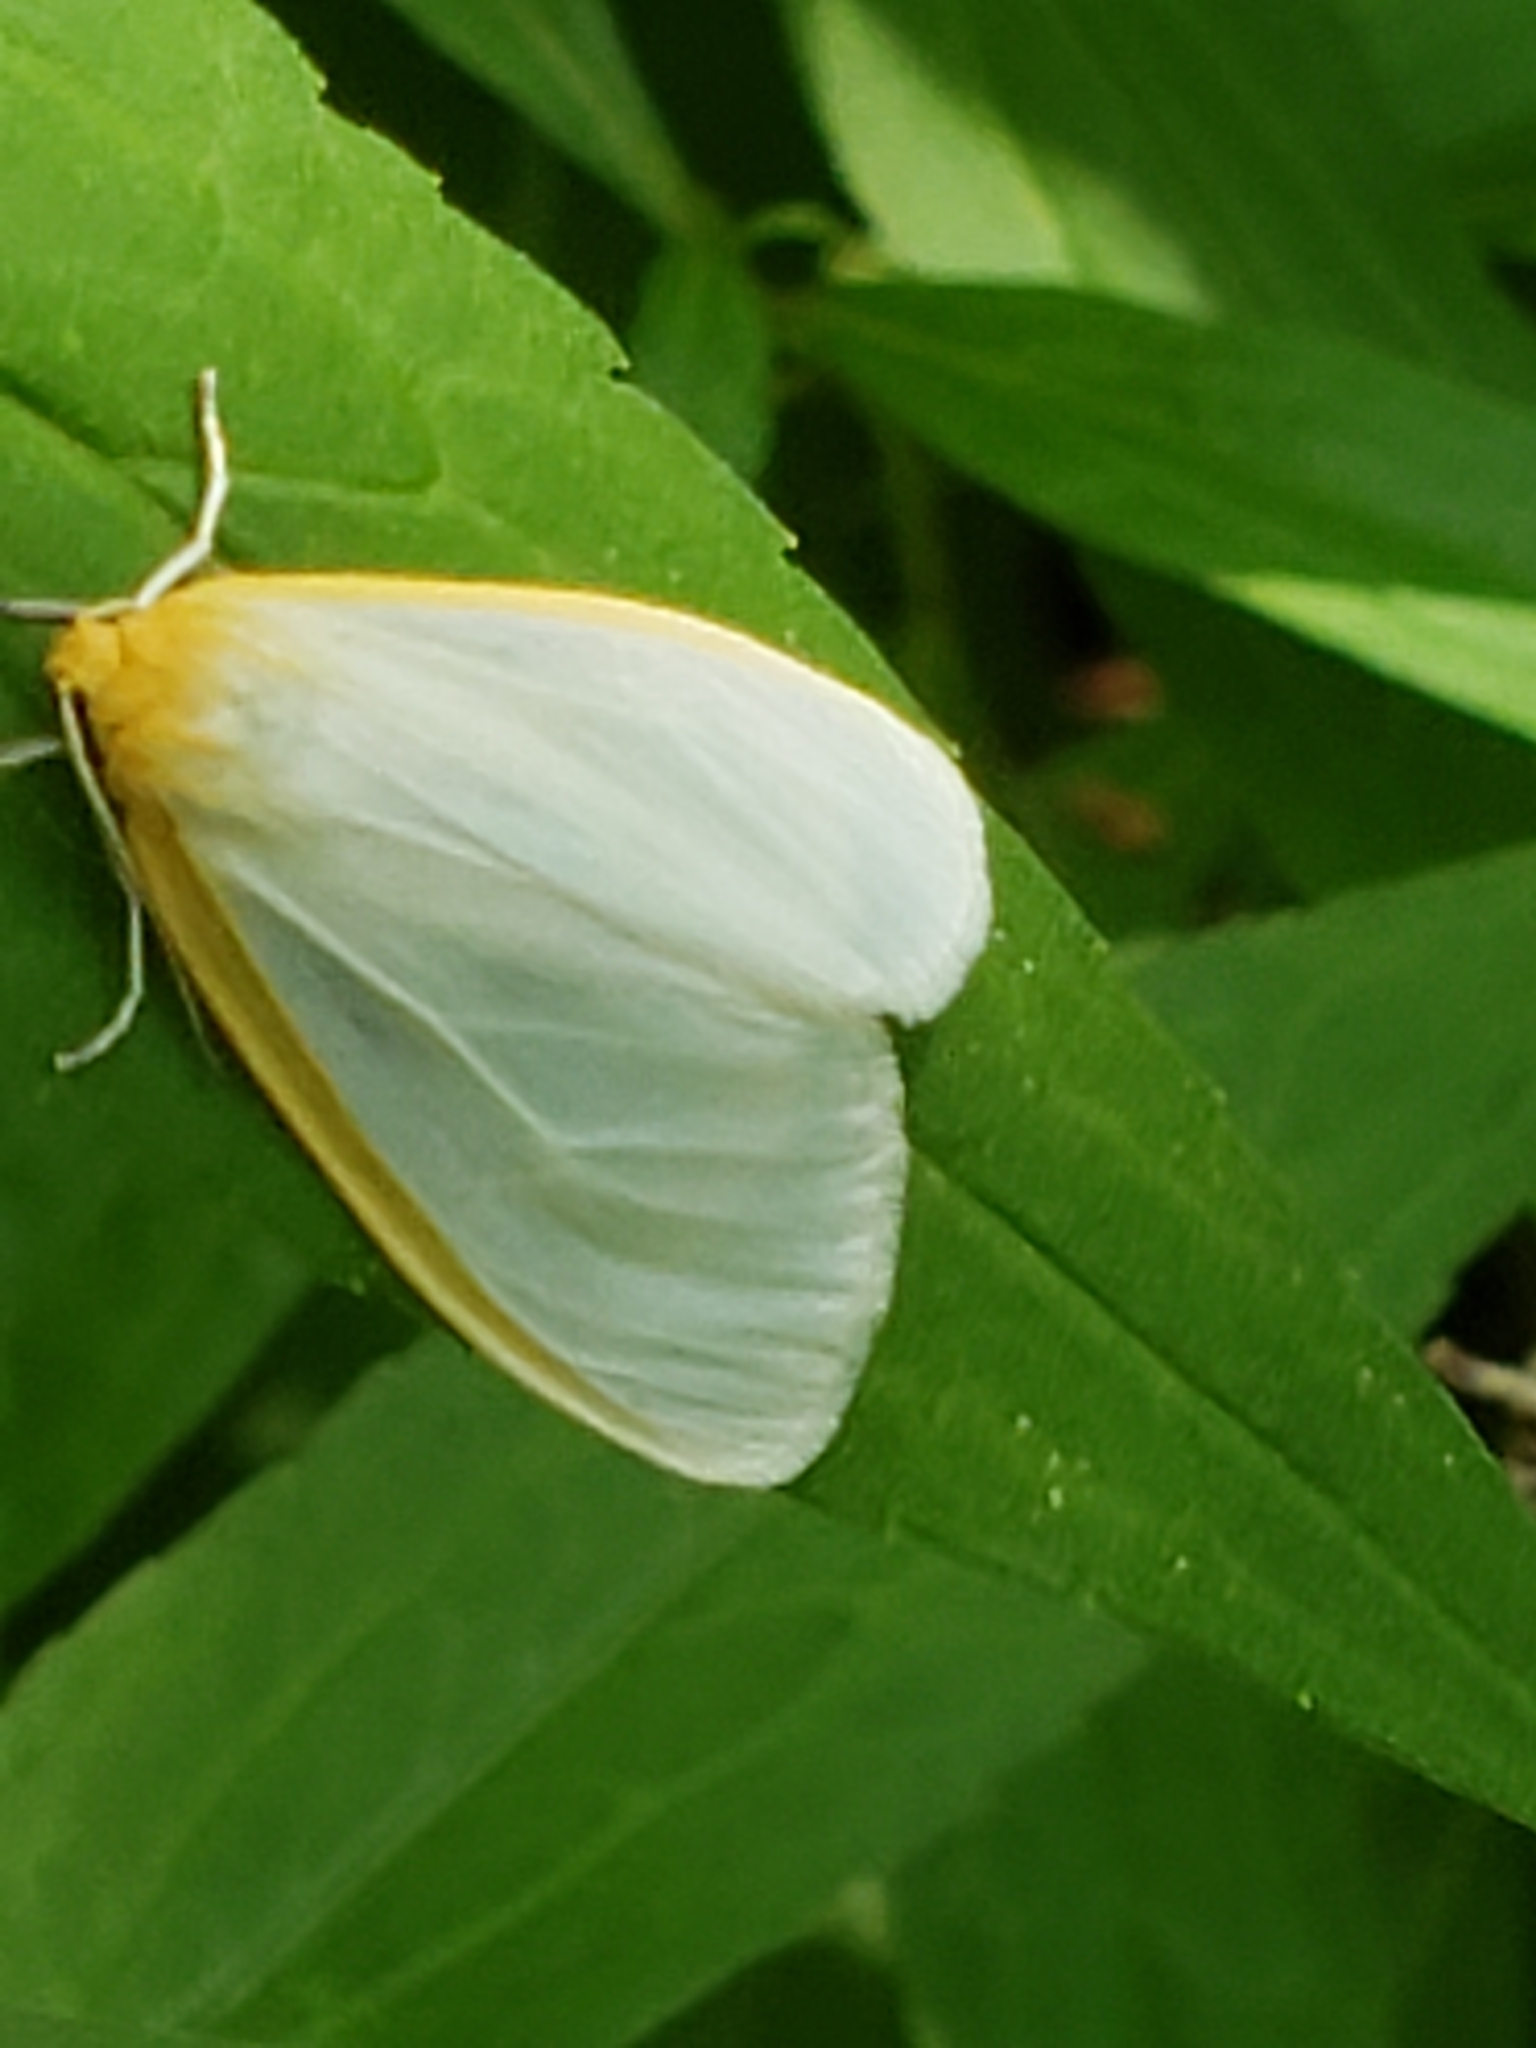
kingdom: Animalia
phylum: Arthropoda
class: Insecta
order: Lepidoptera
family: Erebidae
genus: Cycnia
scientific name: Cycnia tenera
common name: Delicate cycnia moth
